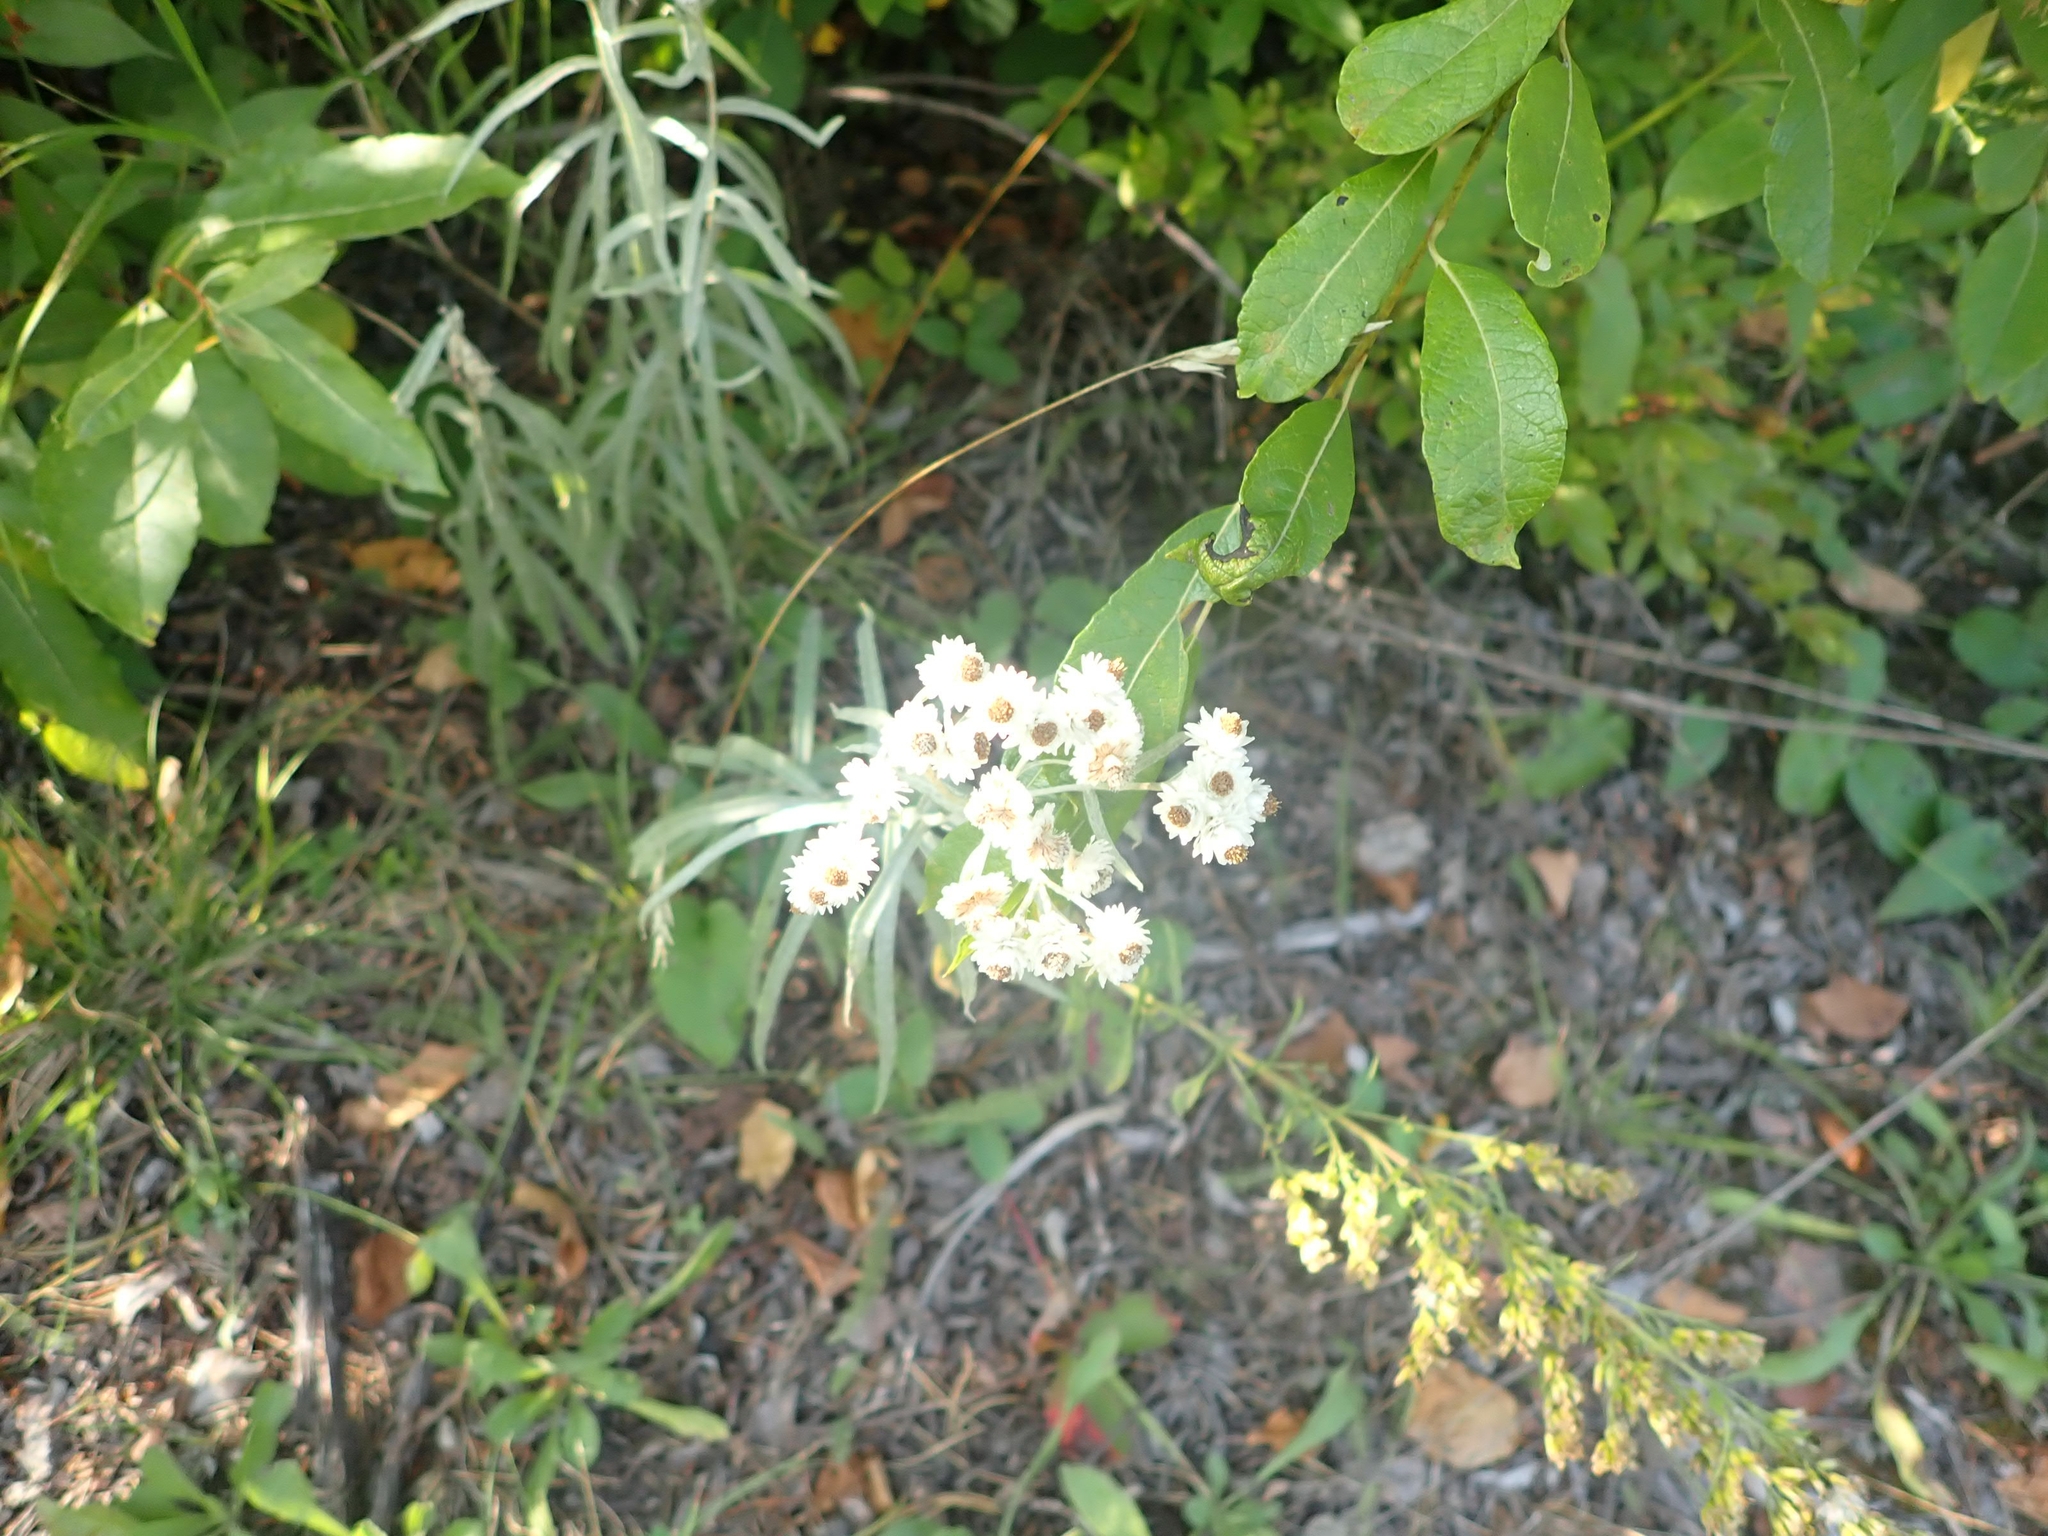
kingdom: Plantae
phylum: Tracheophyta
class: Magnoliopsida
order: Asterales
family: Asteraceae
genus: Anaphalis
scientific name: Anaphalis margaritacea
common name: Pearly everlasting
